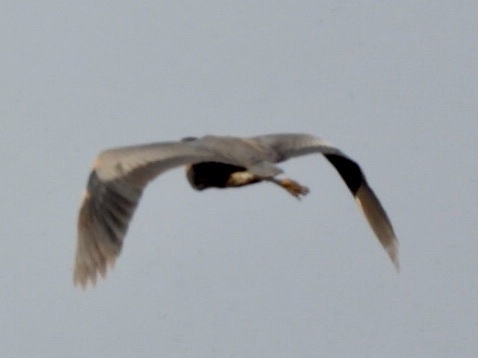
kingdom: Animalia
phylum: Chordata
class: Aves
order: Pelecaniformes
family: Ardeidae
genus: Ardea
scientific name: Ardea herodias
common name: Great blue heron
